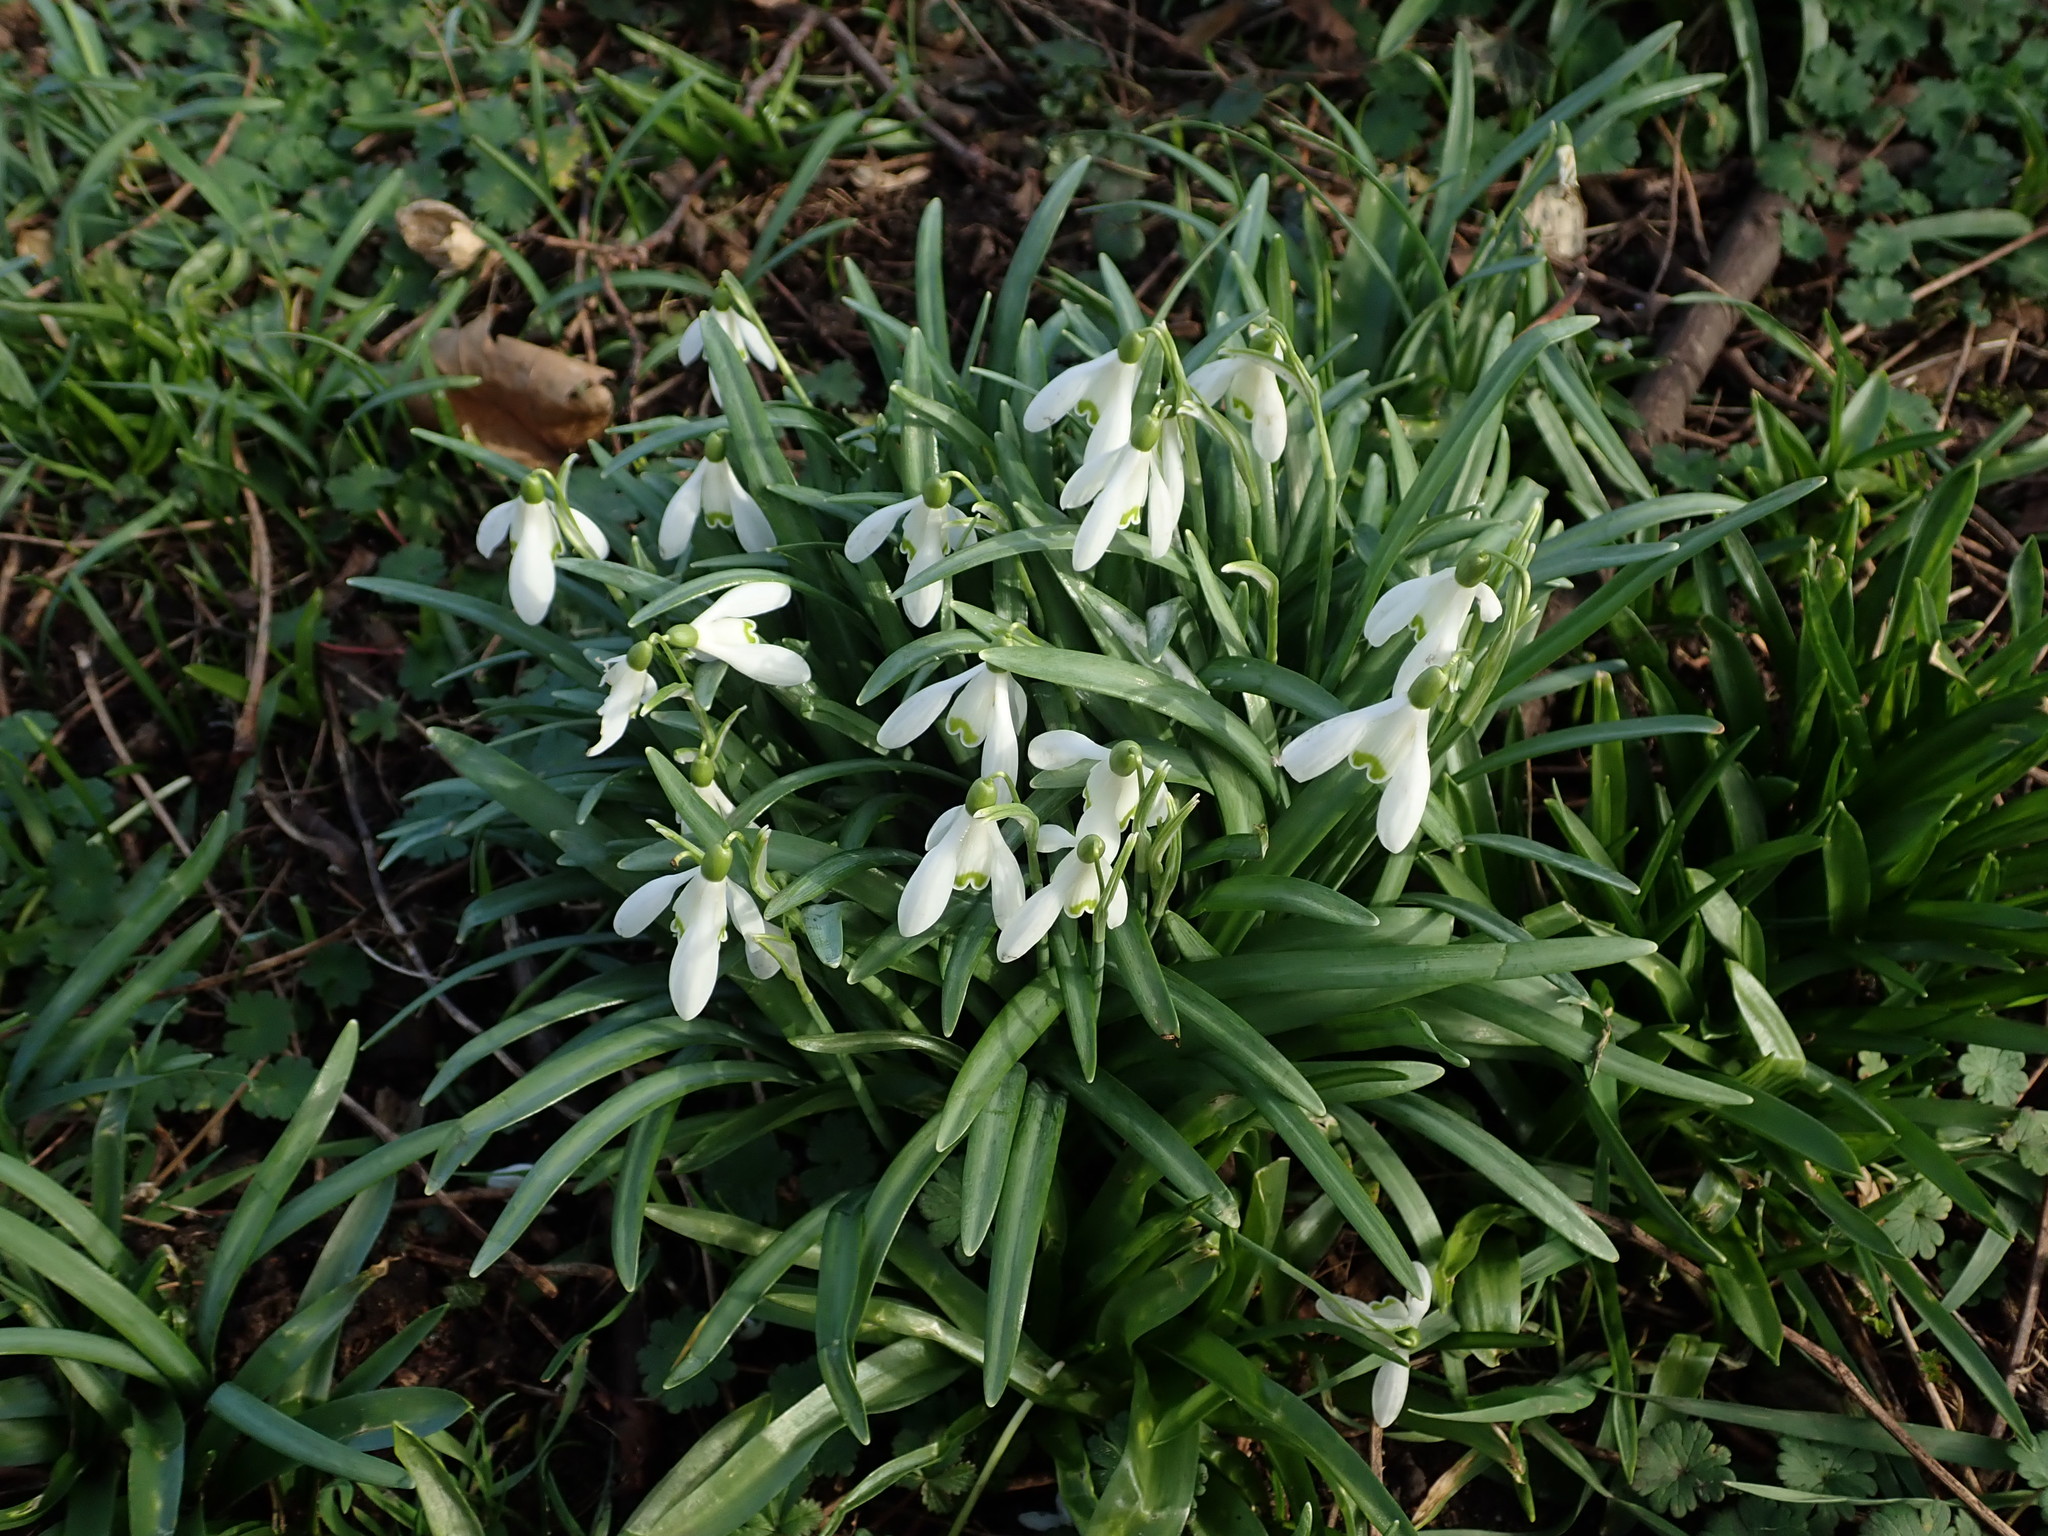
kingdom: Plantae
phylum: Tracheophyta
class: Liliopsida
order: Asparagales
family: Amaryllidaceae
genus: Galanthus
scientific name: Galanthus nivalis
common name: Snowdrop
